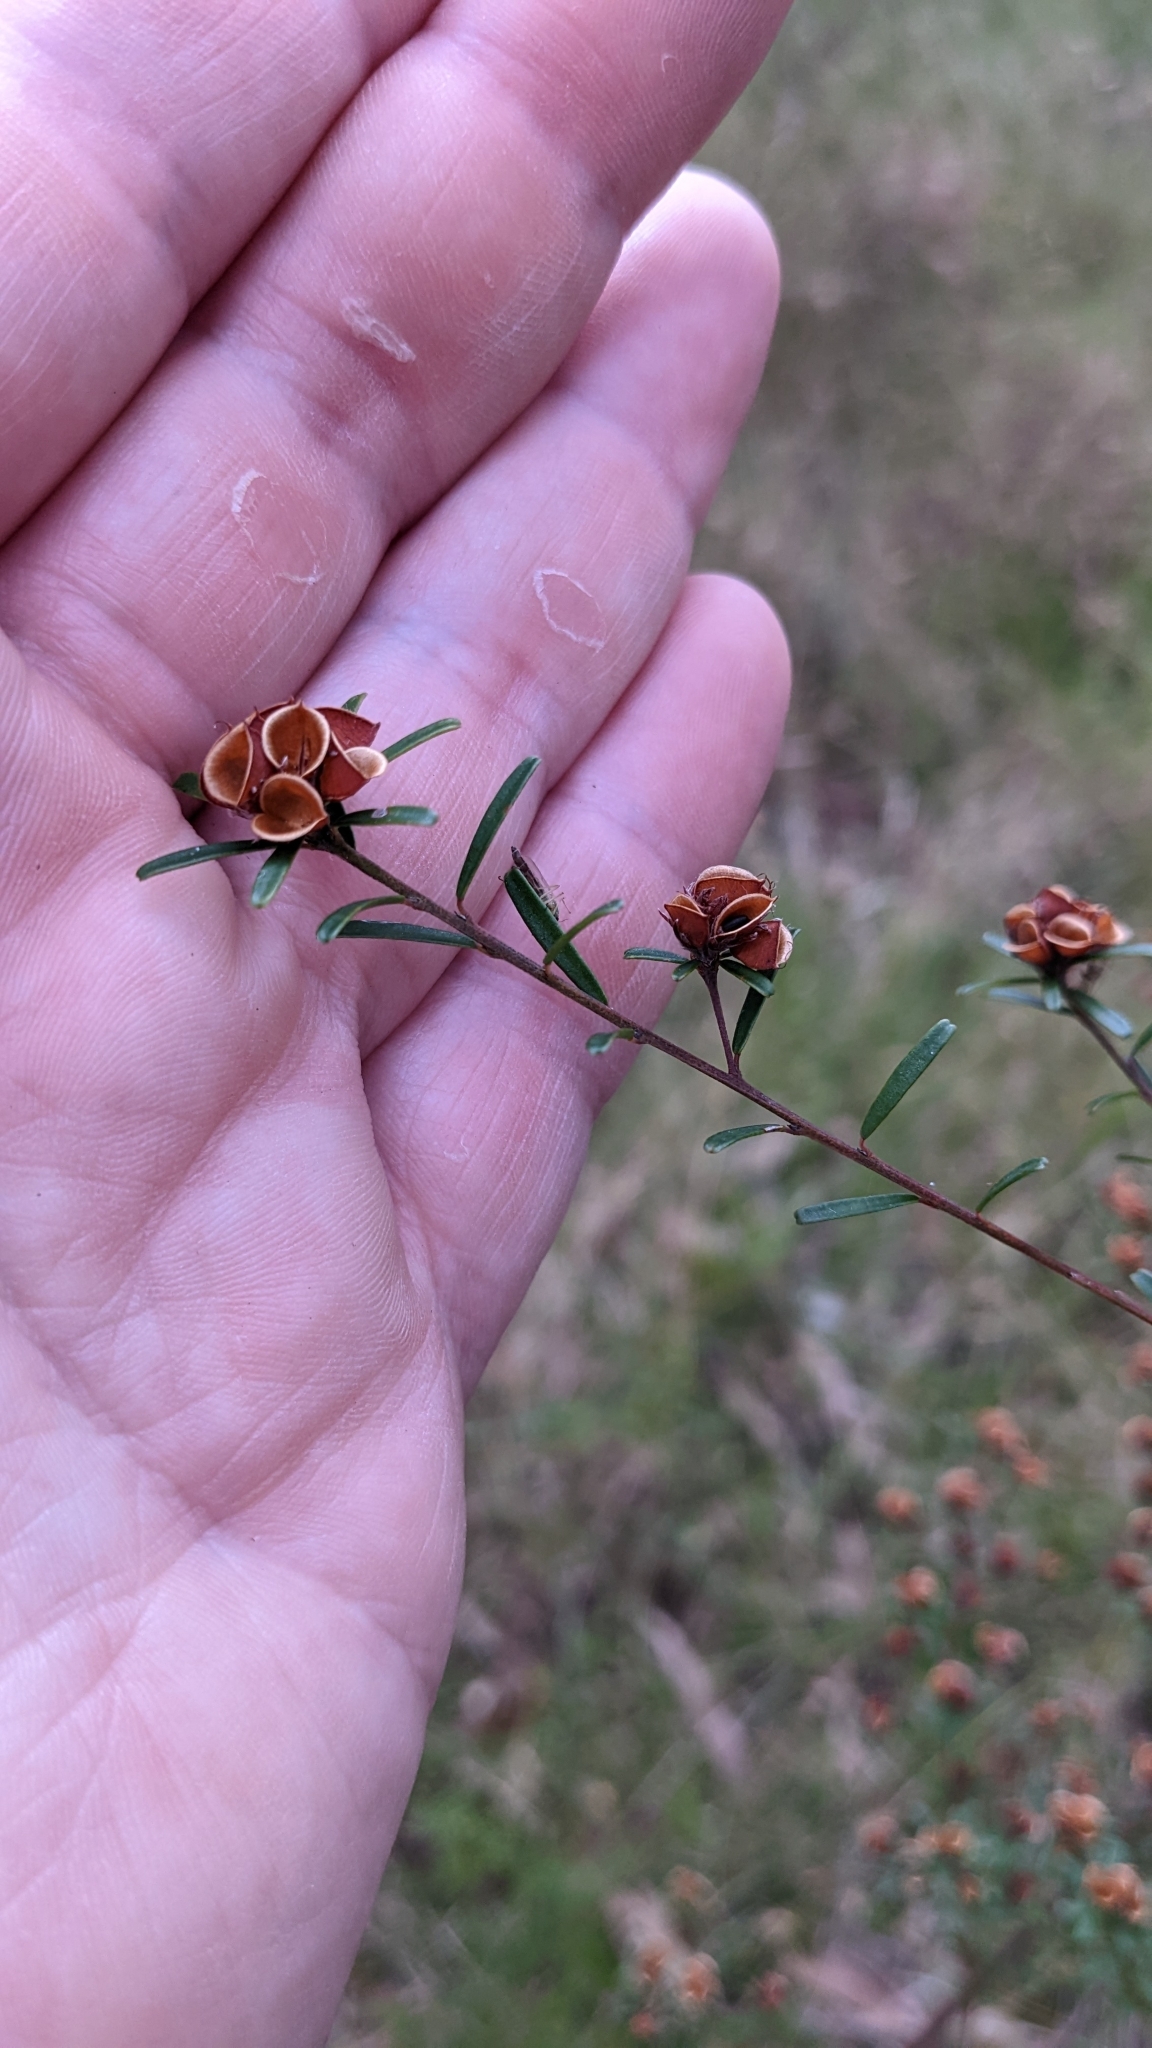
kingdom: Plantae
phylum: Tracheophyta
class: Magnoliopsida
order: Fabales
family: Fabaceae
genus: Pultenaea
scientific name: Pultenaea retusa
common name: Blunt bush-pea
